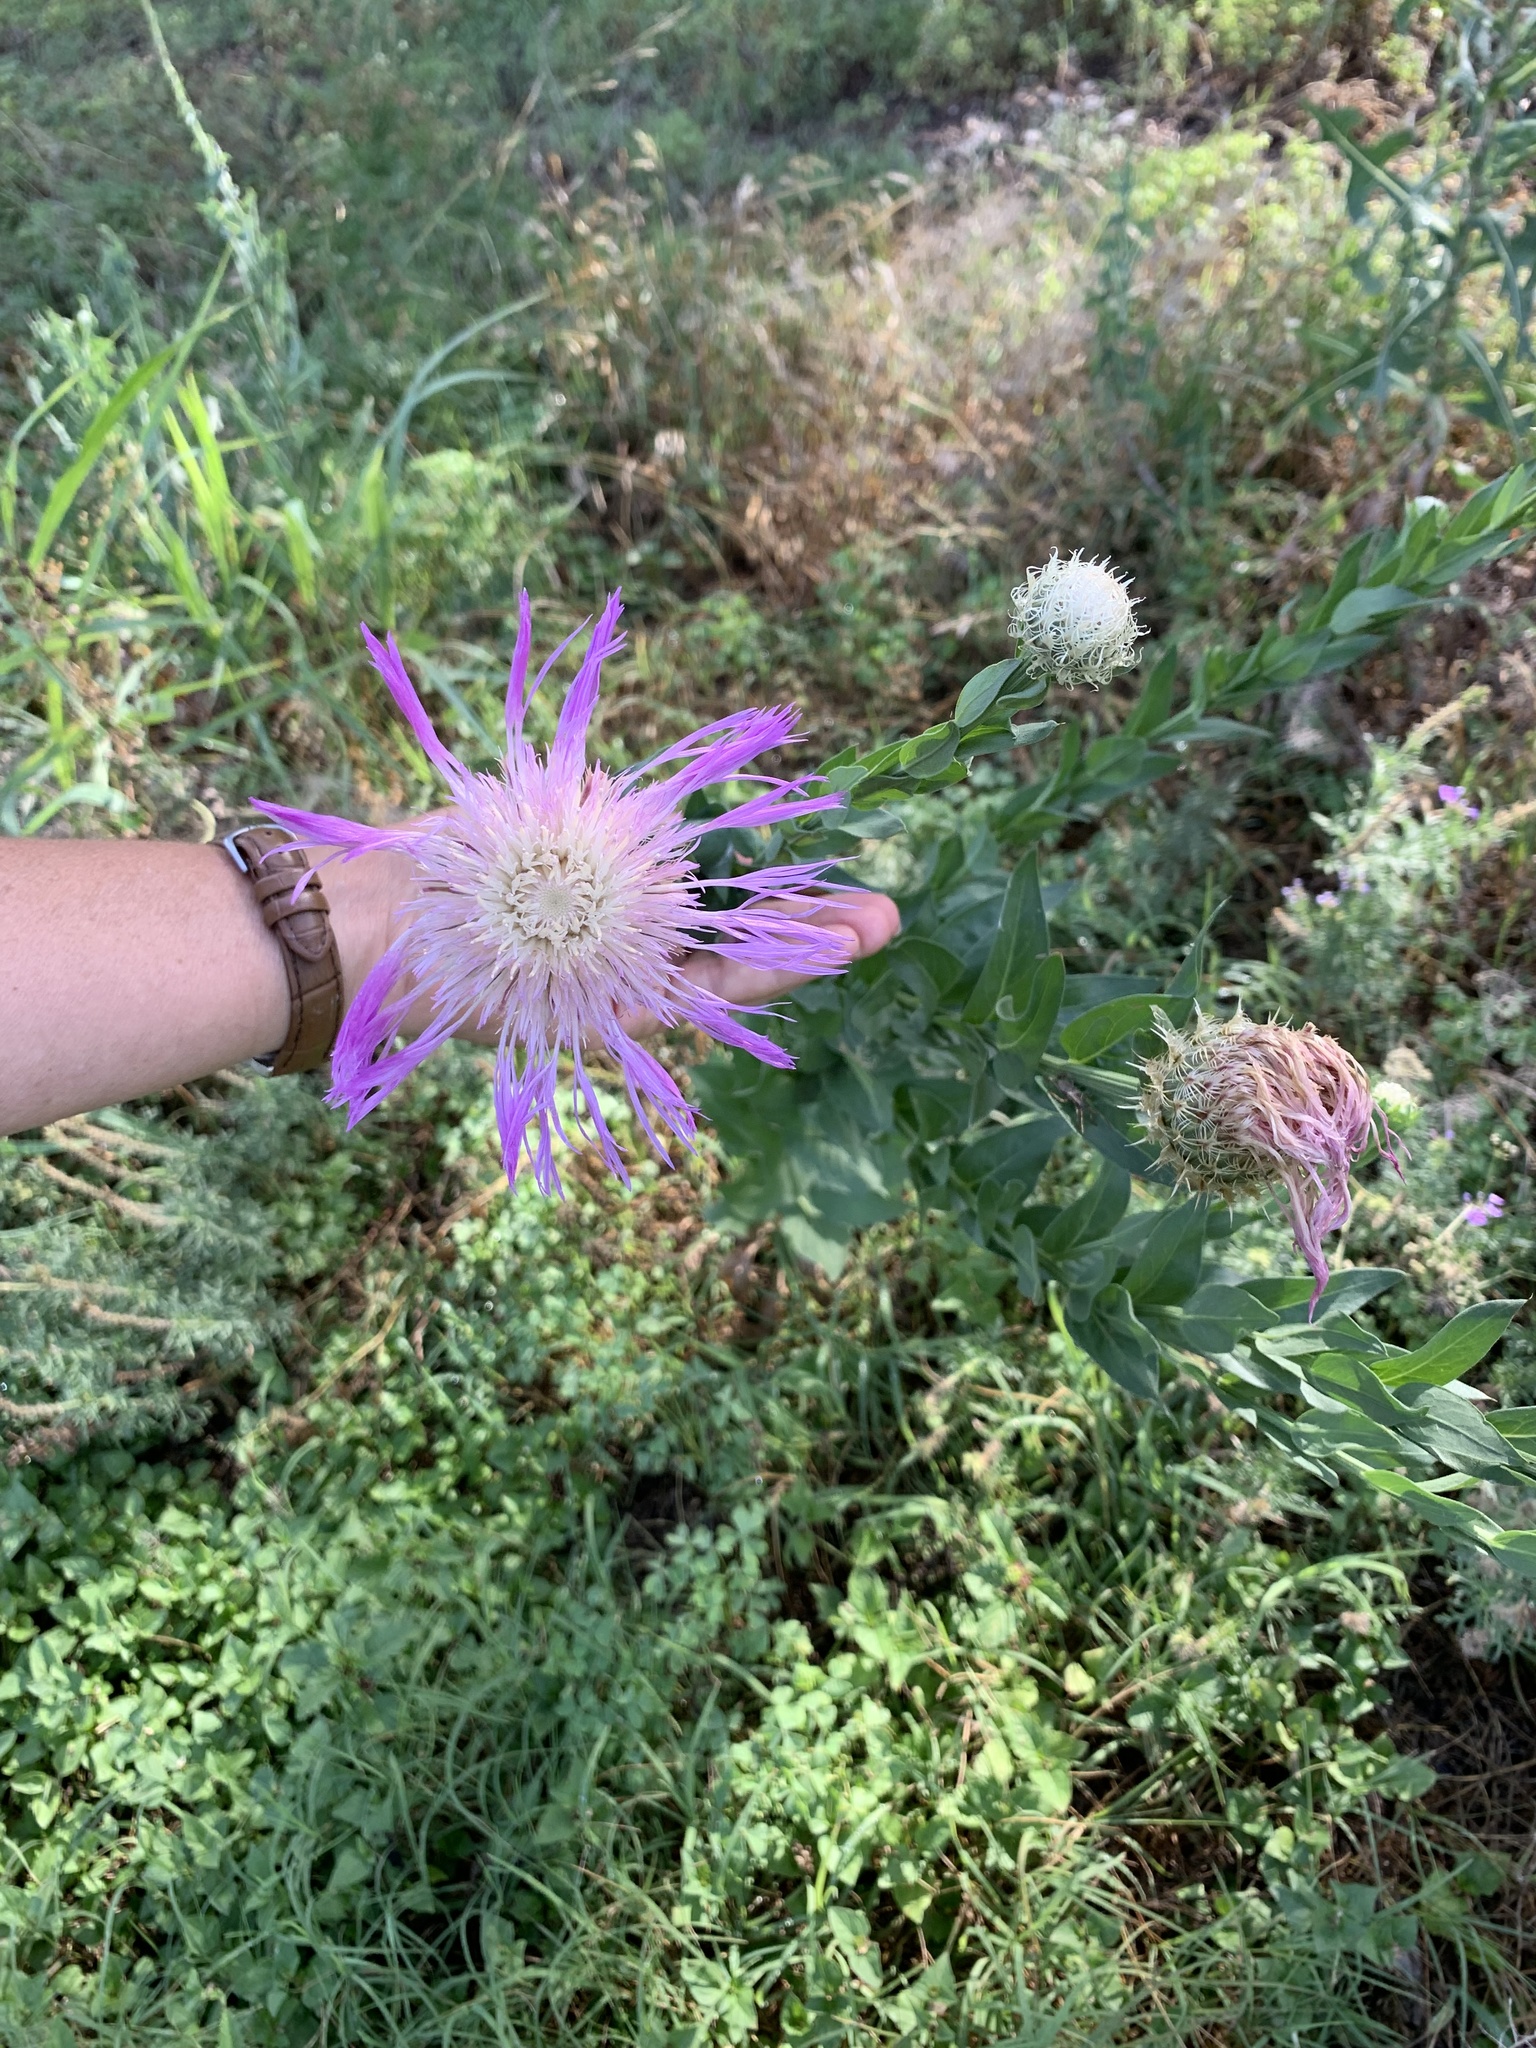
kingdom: Plantae
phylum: Tracheophyta
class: Magnoliopsida
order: Asterales
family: Asteraceae
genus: Plectocephalus
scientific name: Plectocephalus americanus
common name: American basket-flower
